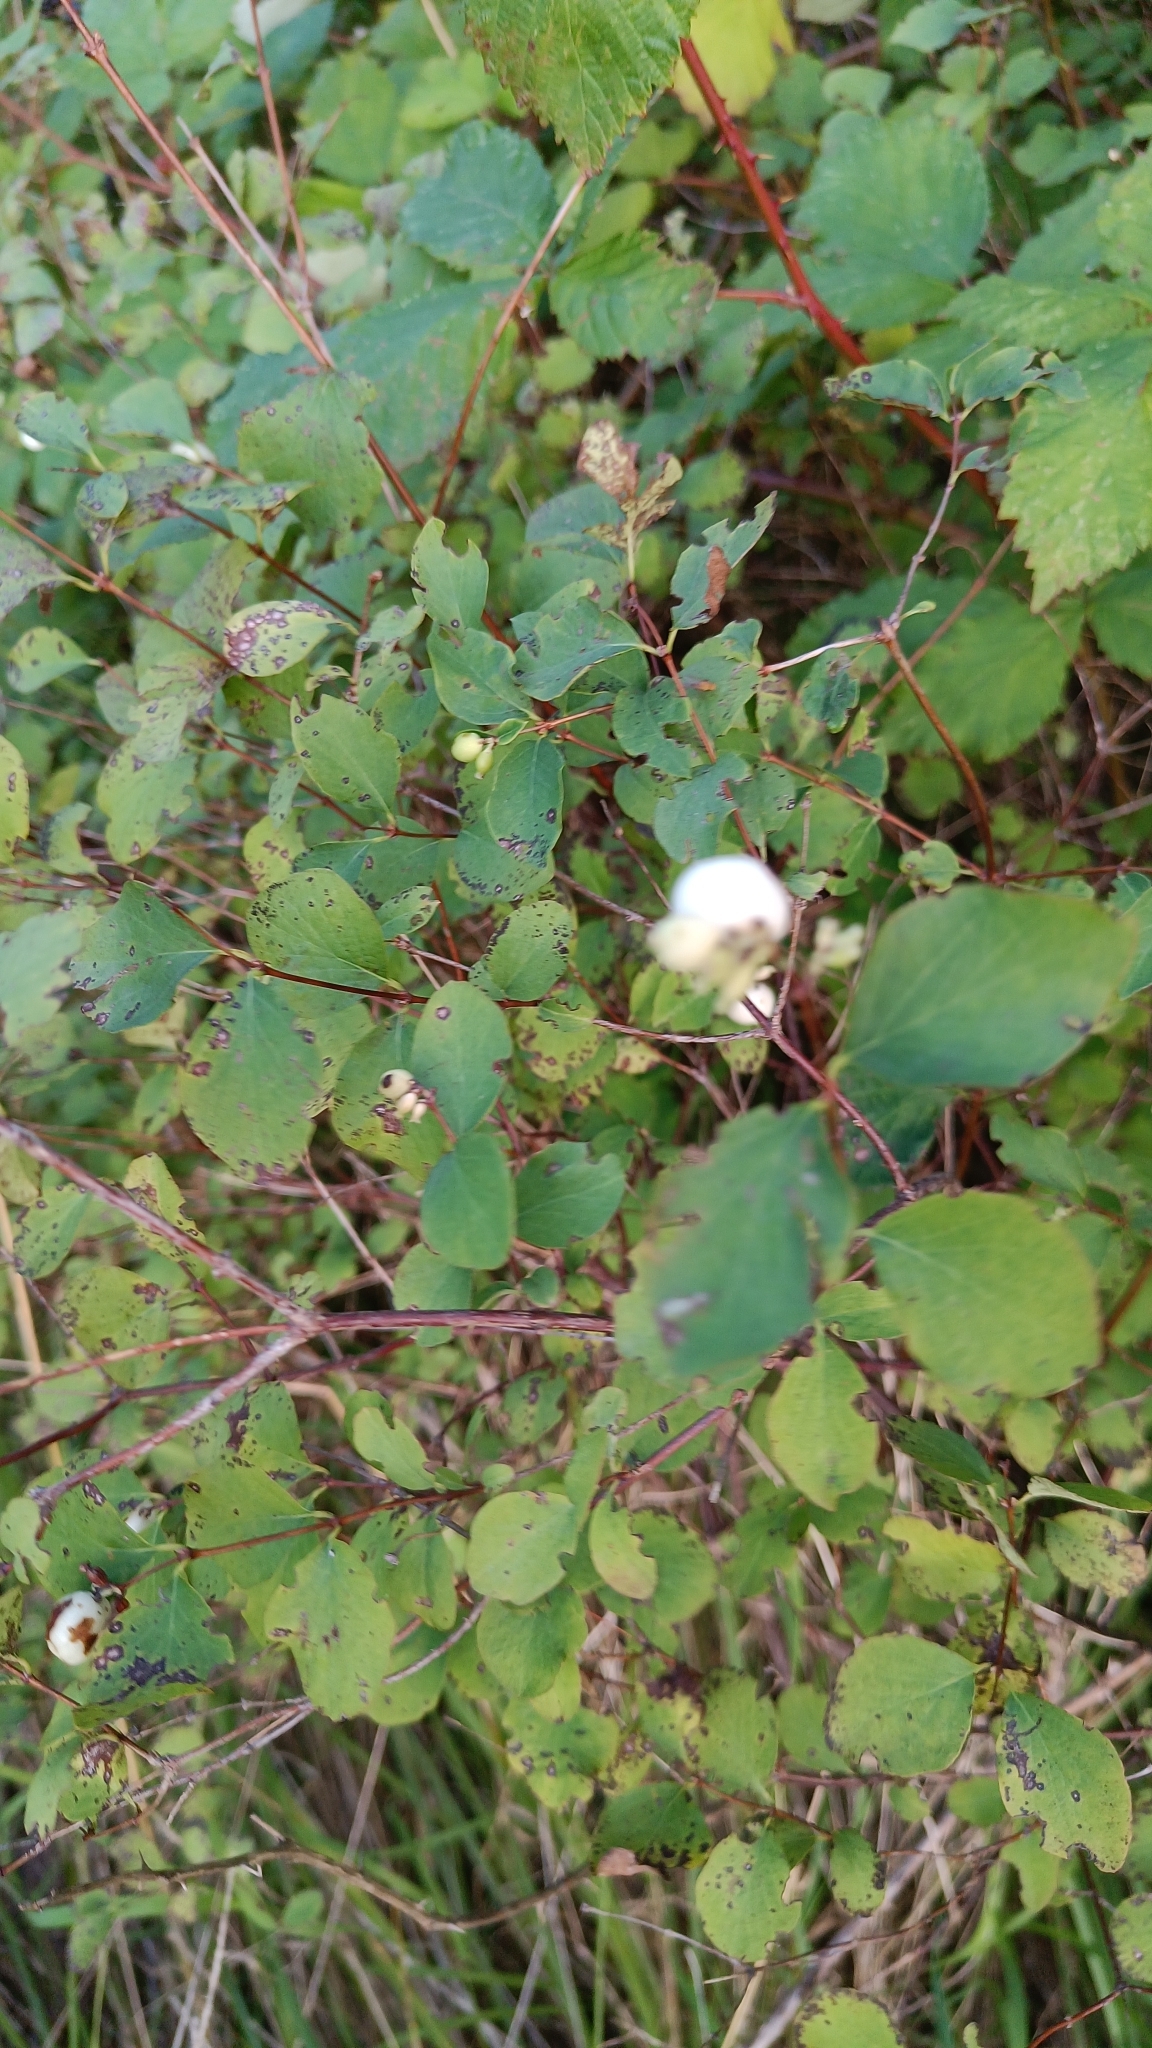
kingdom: Plantae
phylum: Tracheophyta
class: Magnoliopsida
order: Dipsacales
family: Caprifoliaceae
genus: Symphoricarpos
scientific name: Symphoricarpos albus
